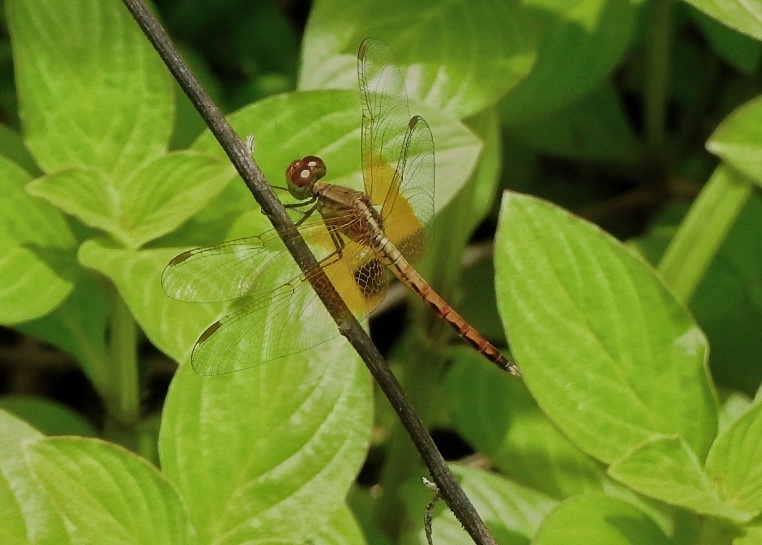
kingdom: Animalia
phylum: Arthropoda
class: Insecta
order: Odonata
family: Libellulidae
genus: Neurothemis
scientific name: Neurothemis intermedia
